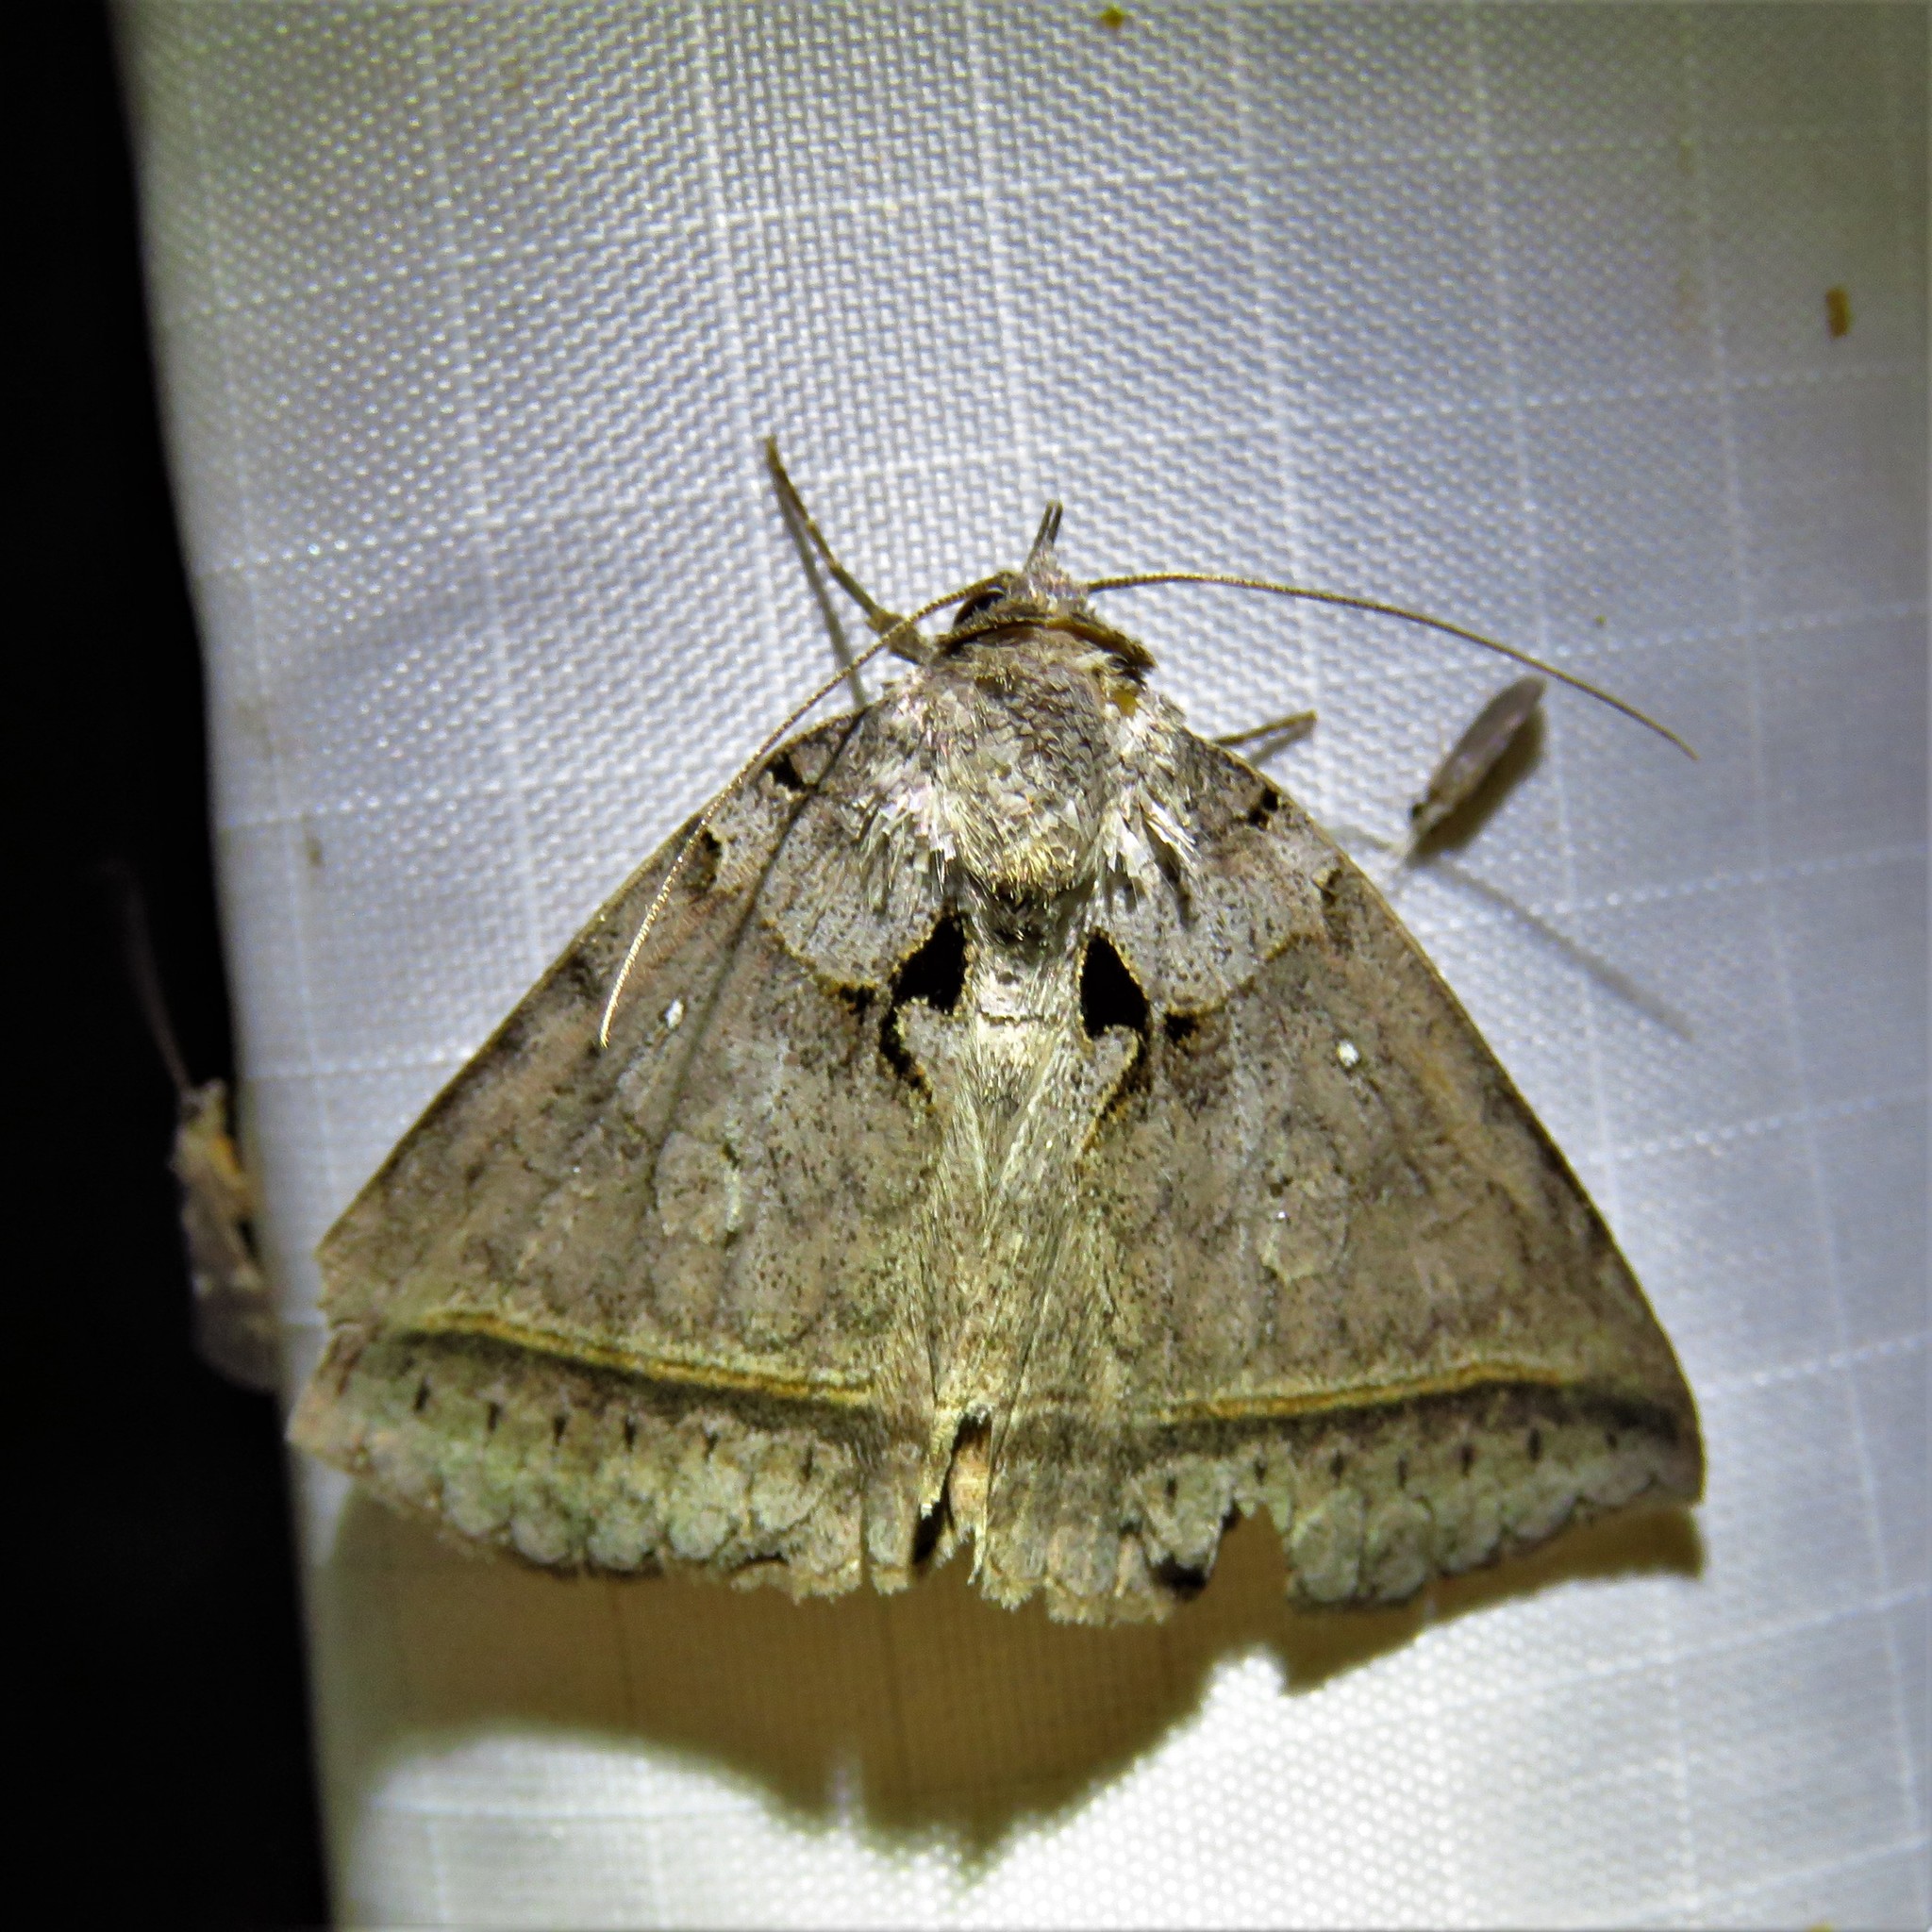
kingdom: Animalia
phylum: Arthropoda
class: Insecta
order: Lepidoptera
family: Erebidae
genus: Celiptera
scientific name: Celiptera frustulum
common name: Black bit moth
